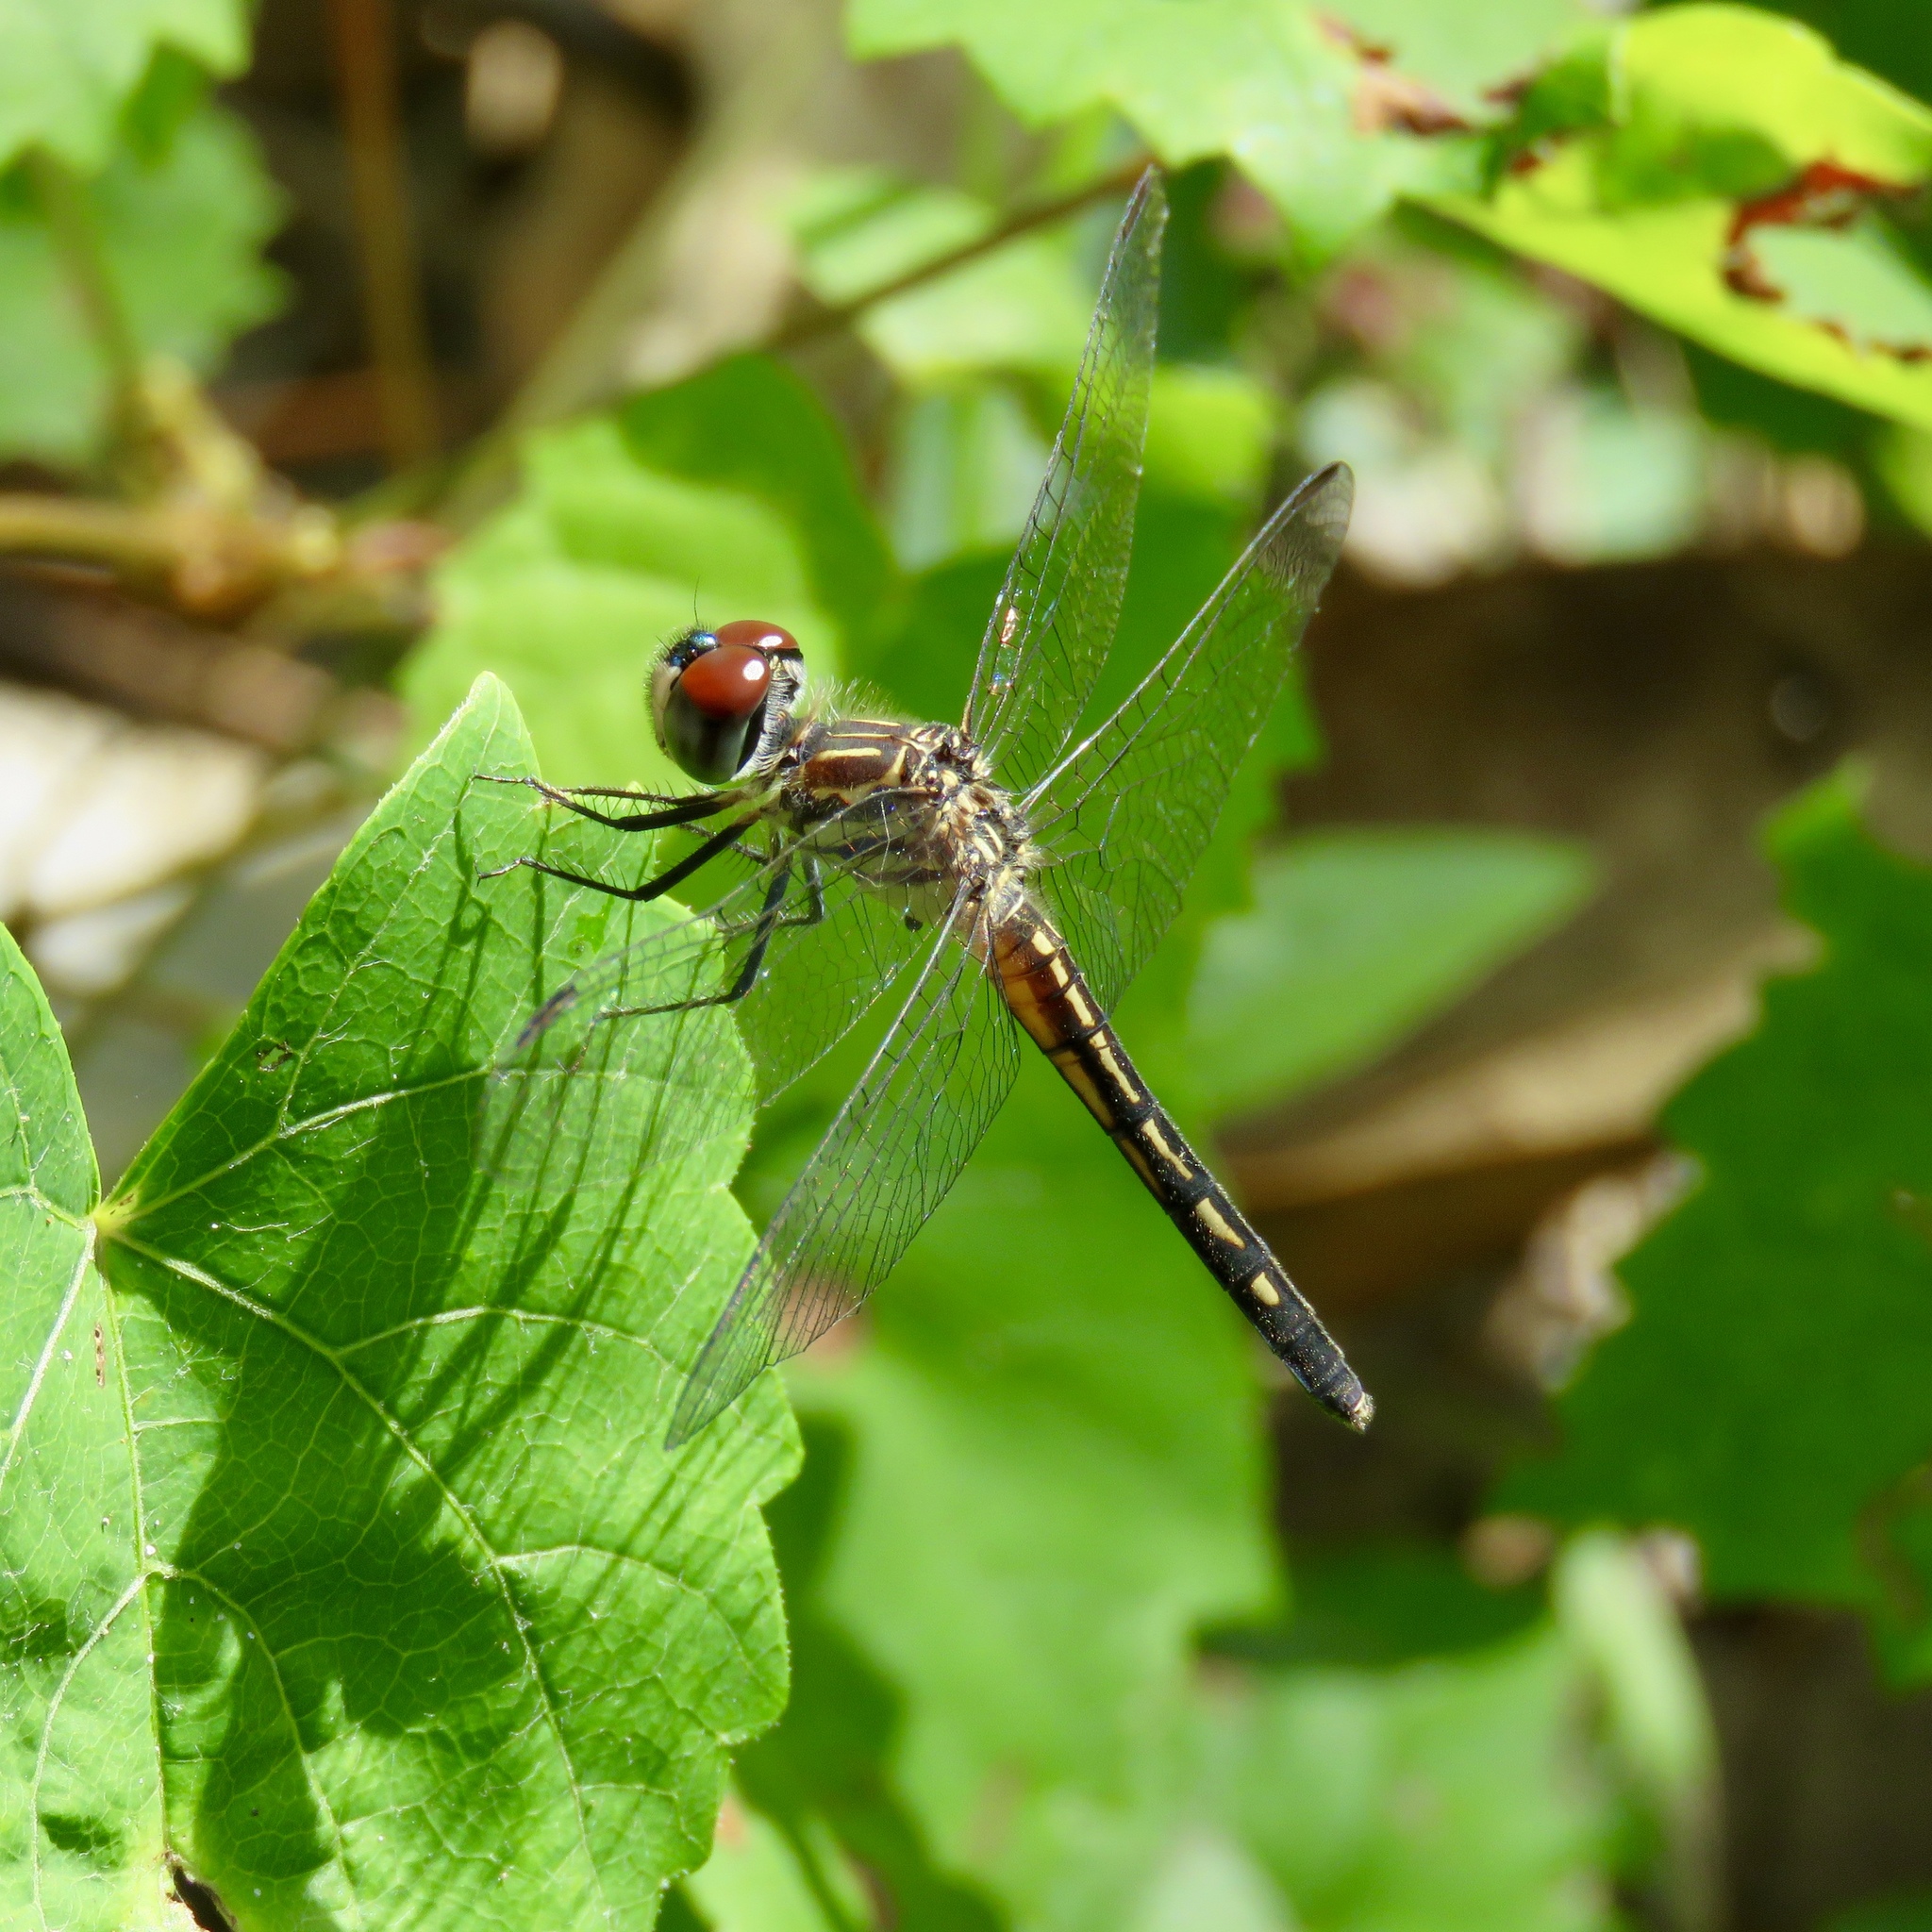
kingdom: Animalia
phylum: Arthropoda
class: Insecta
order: Odonata
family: Libellulidae
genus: Pachydiplax
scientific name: Pachydiplax longipennis
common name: Blue dasher
